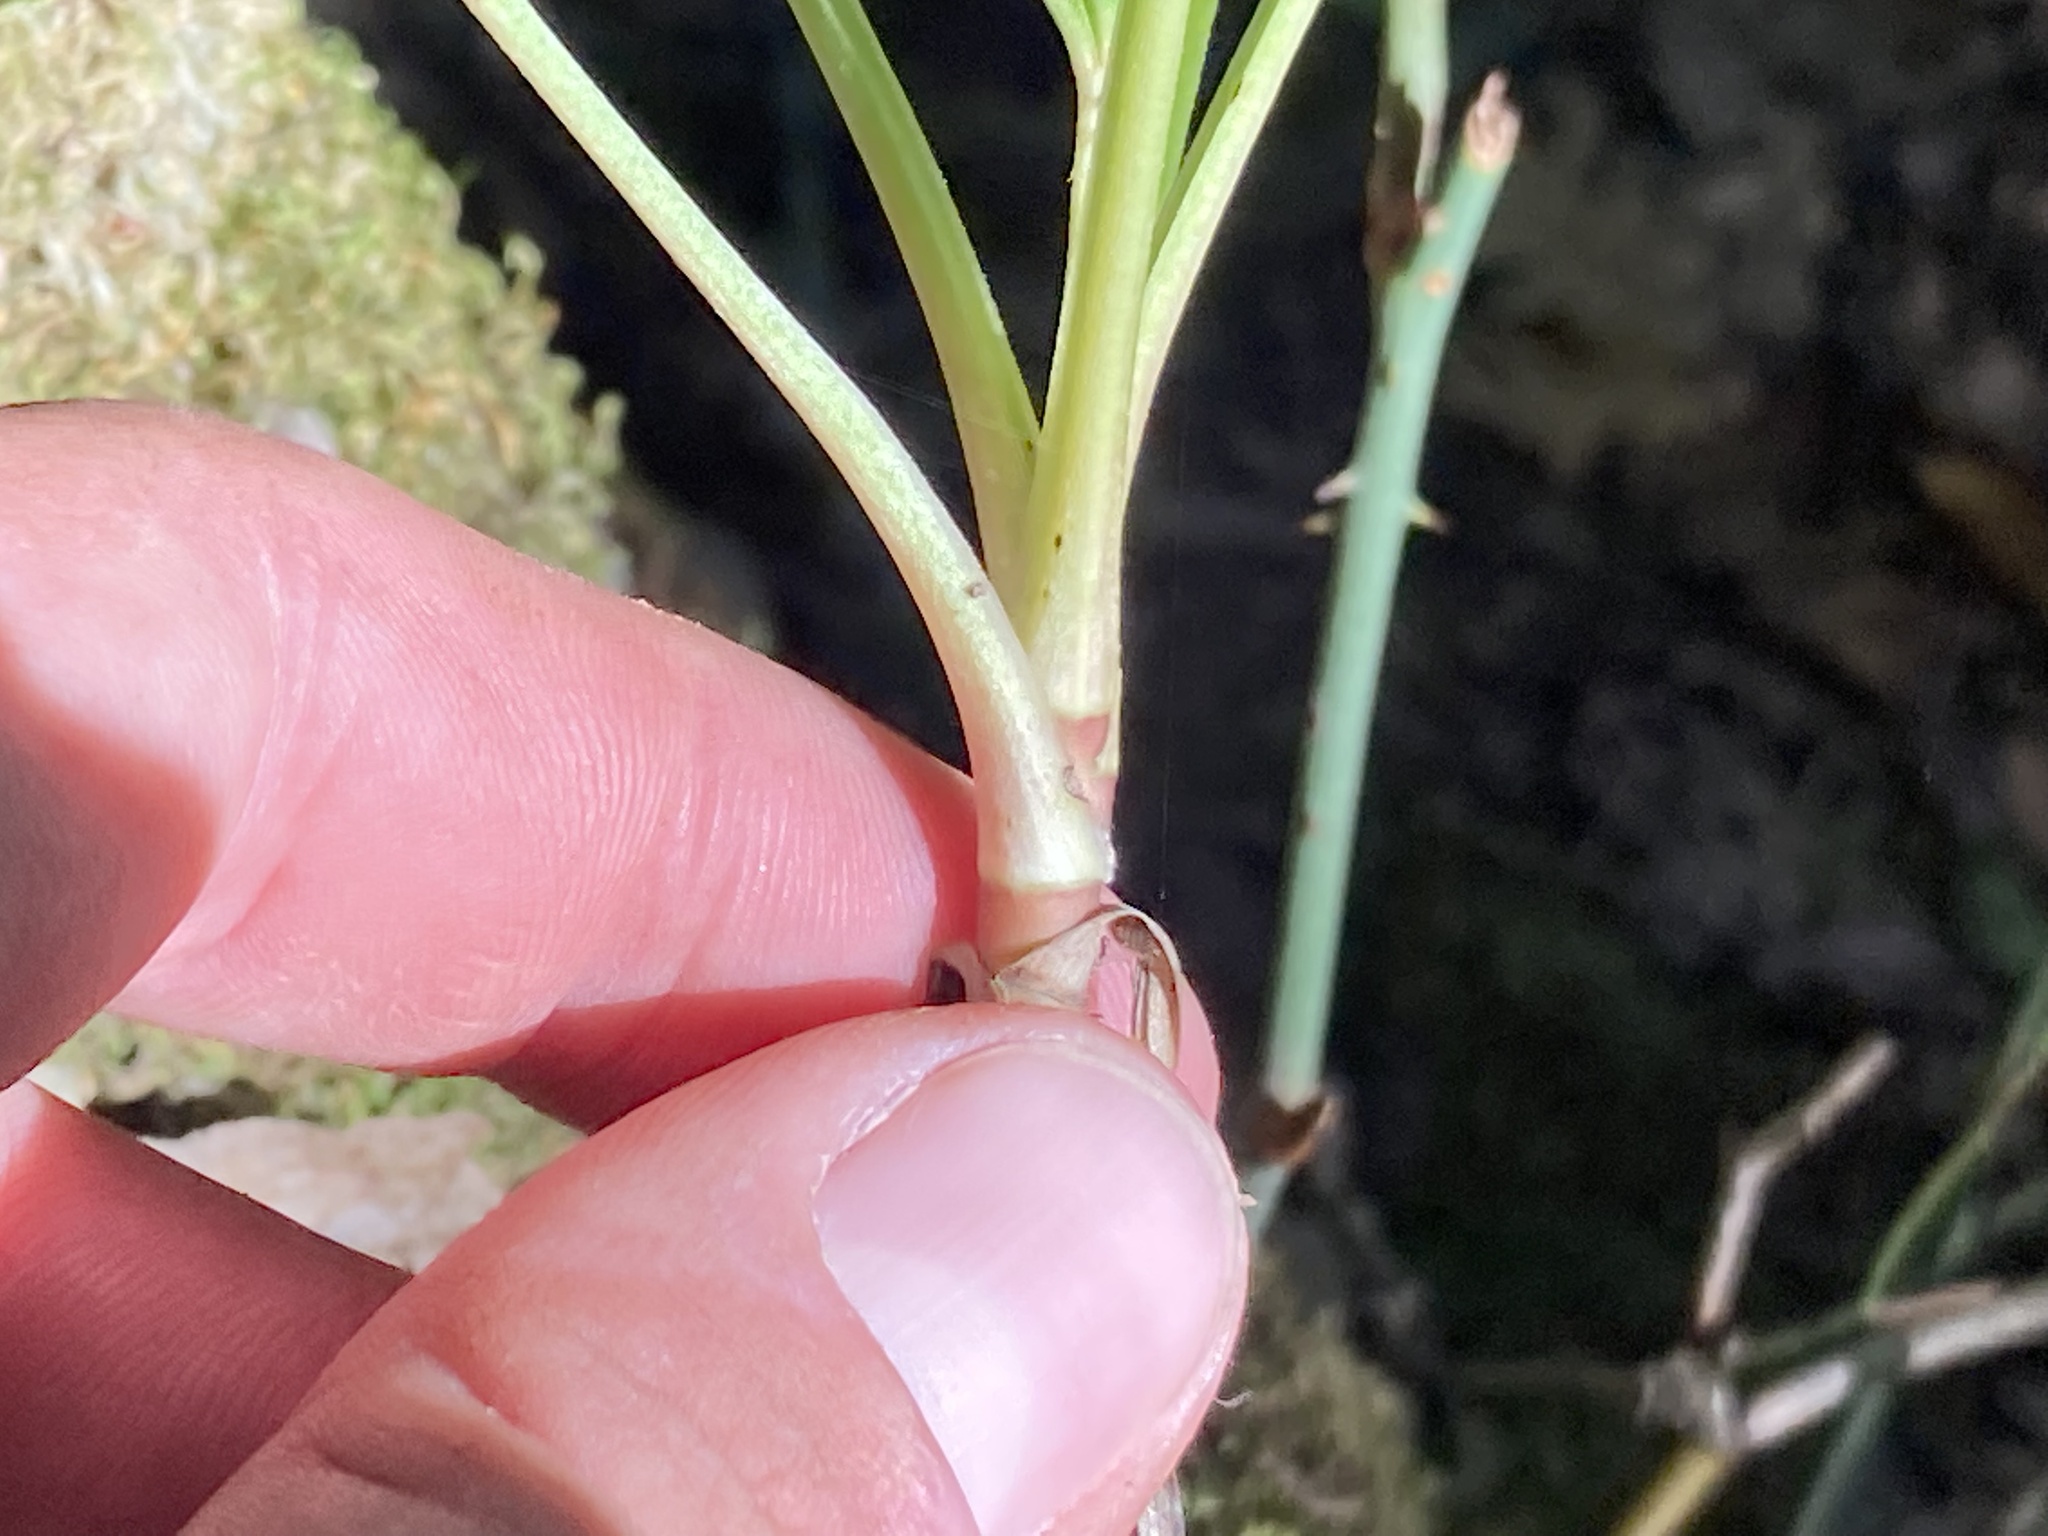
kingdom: Plantae
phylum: Tracheophyta
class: Magnoliopsida
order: Ranunculales
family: Ranunculaceae
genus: Helleborus
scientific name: Helleborus foetidus
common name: Stinking hellebore
